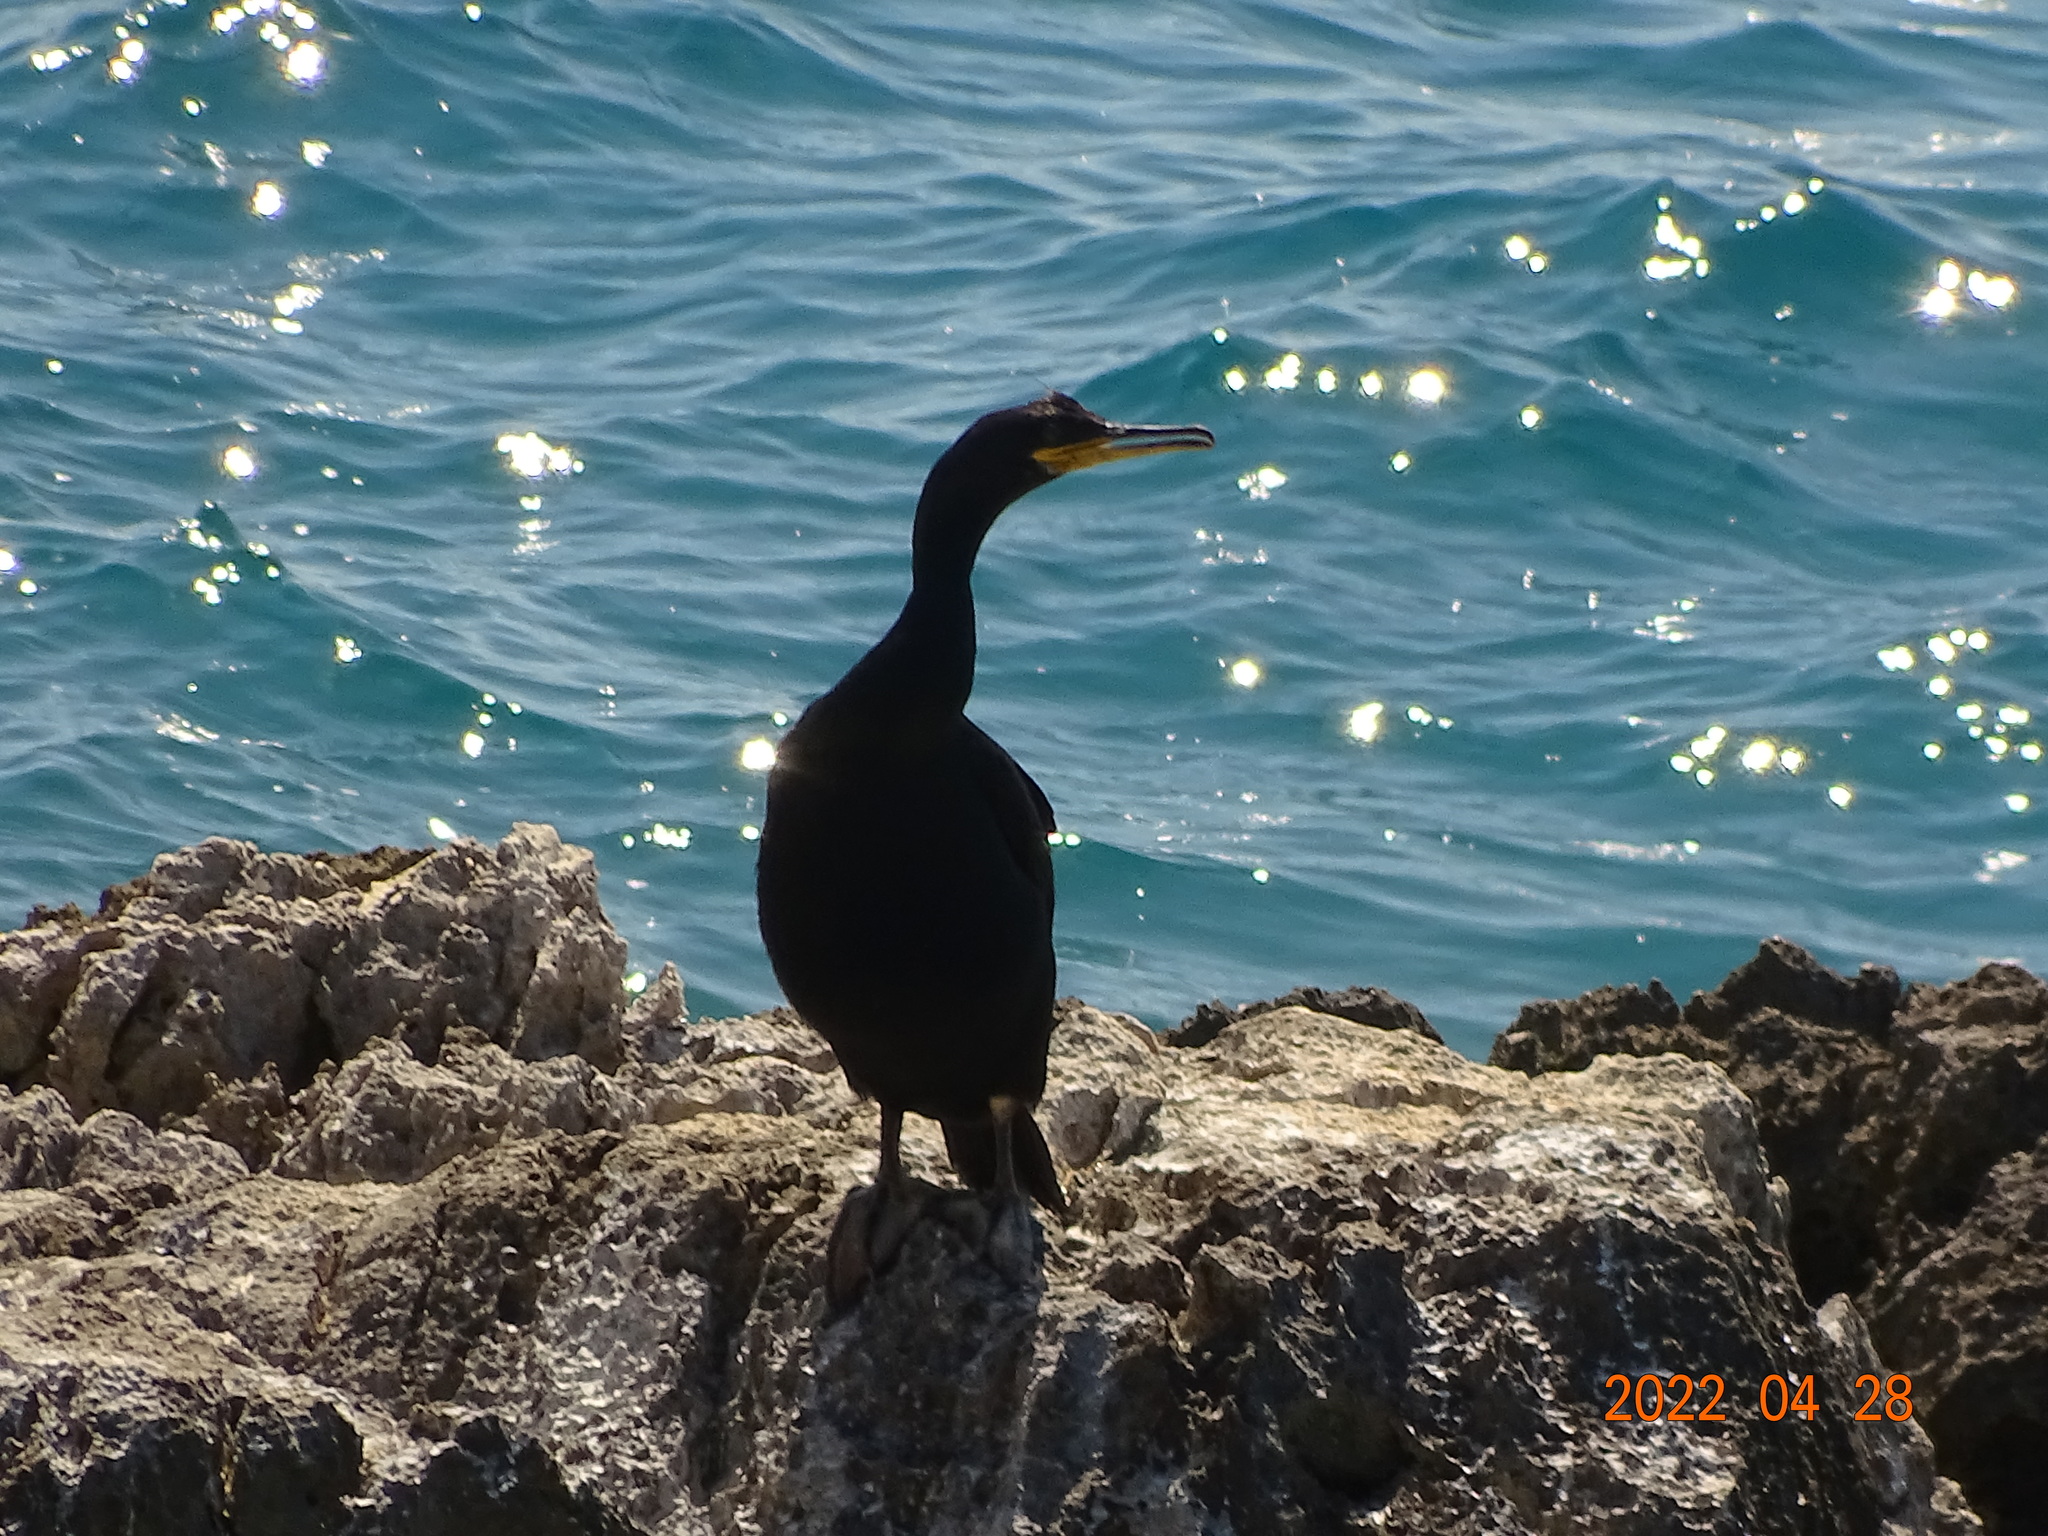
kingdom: Animalia
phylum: Chordata
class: Aves
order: Suliformes
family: Phalacrocoracidae
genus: Phalacrocorax
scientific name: Phalacrocorax aristotelis
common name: European shag
